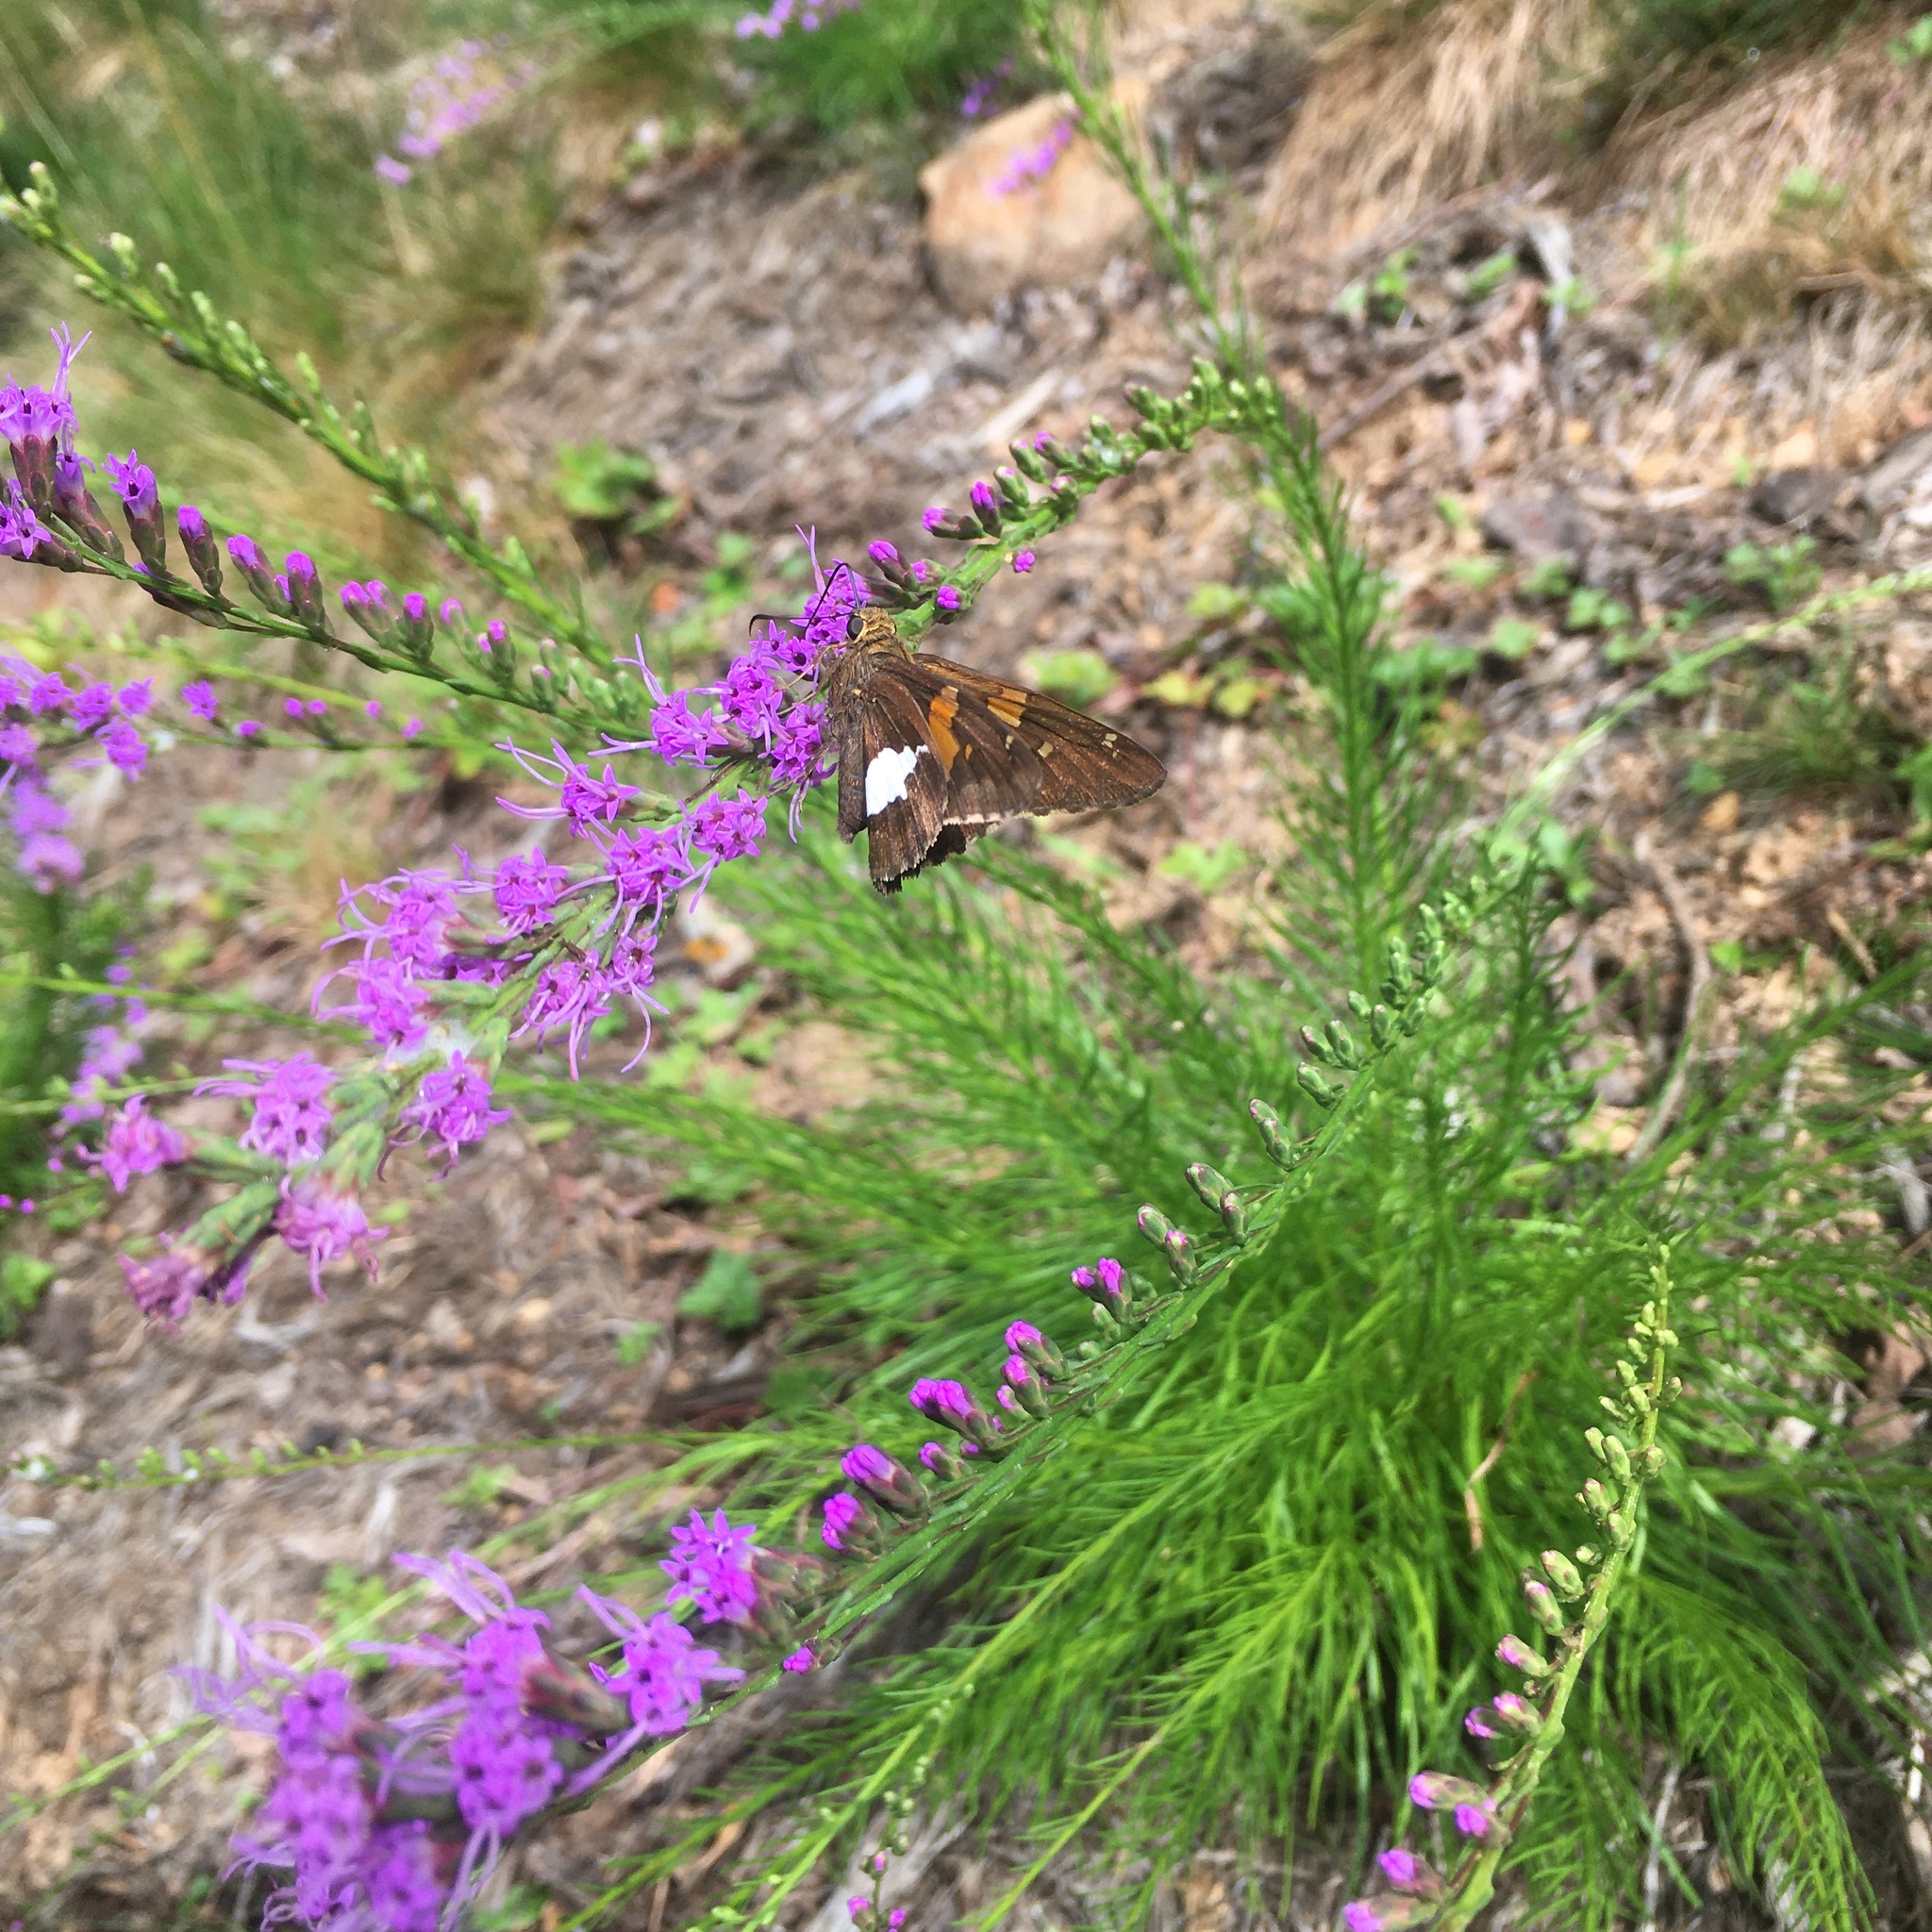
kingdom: Animalia
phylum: Arthropoda
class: Insecta
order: Lepidoptera
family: Hesperiidae
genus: Epargyreus
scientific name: Epargyreus clarus
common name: Silver-spotted skipper
